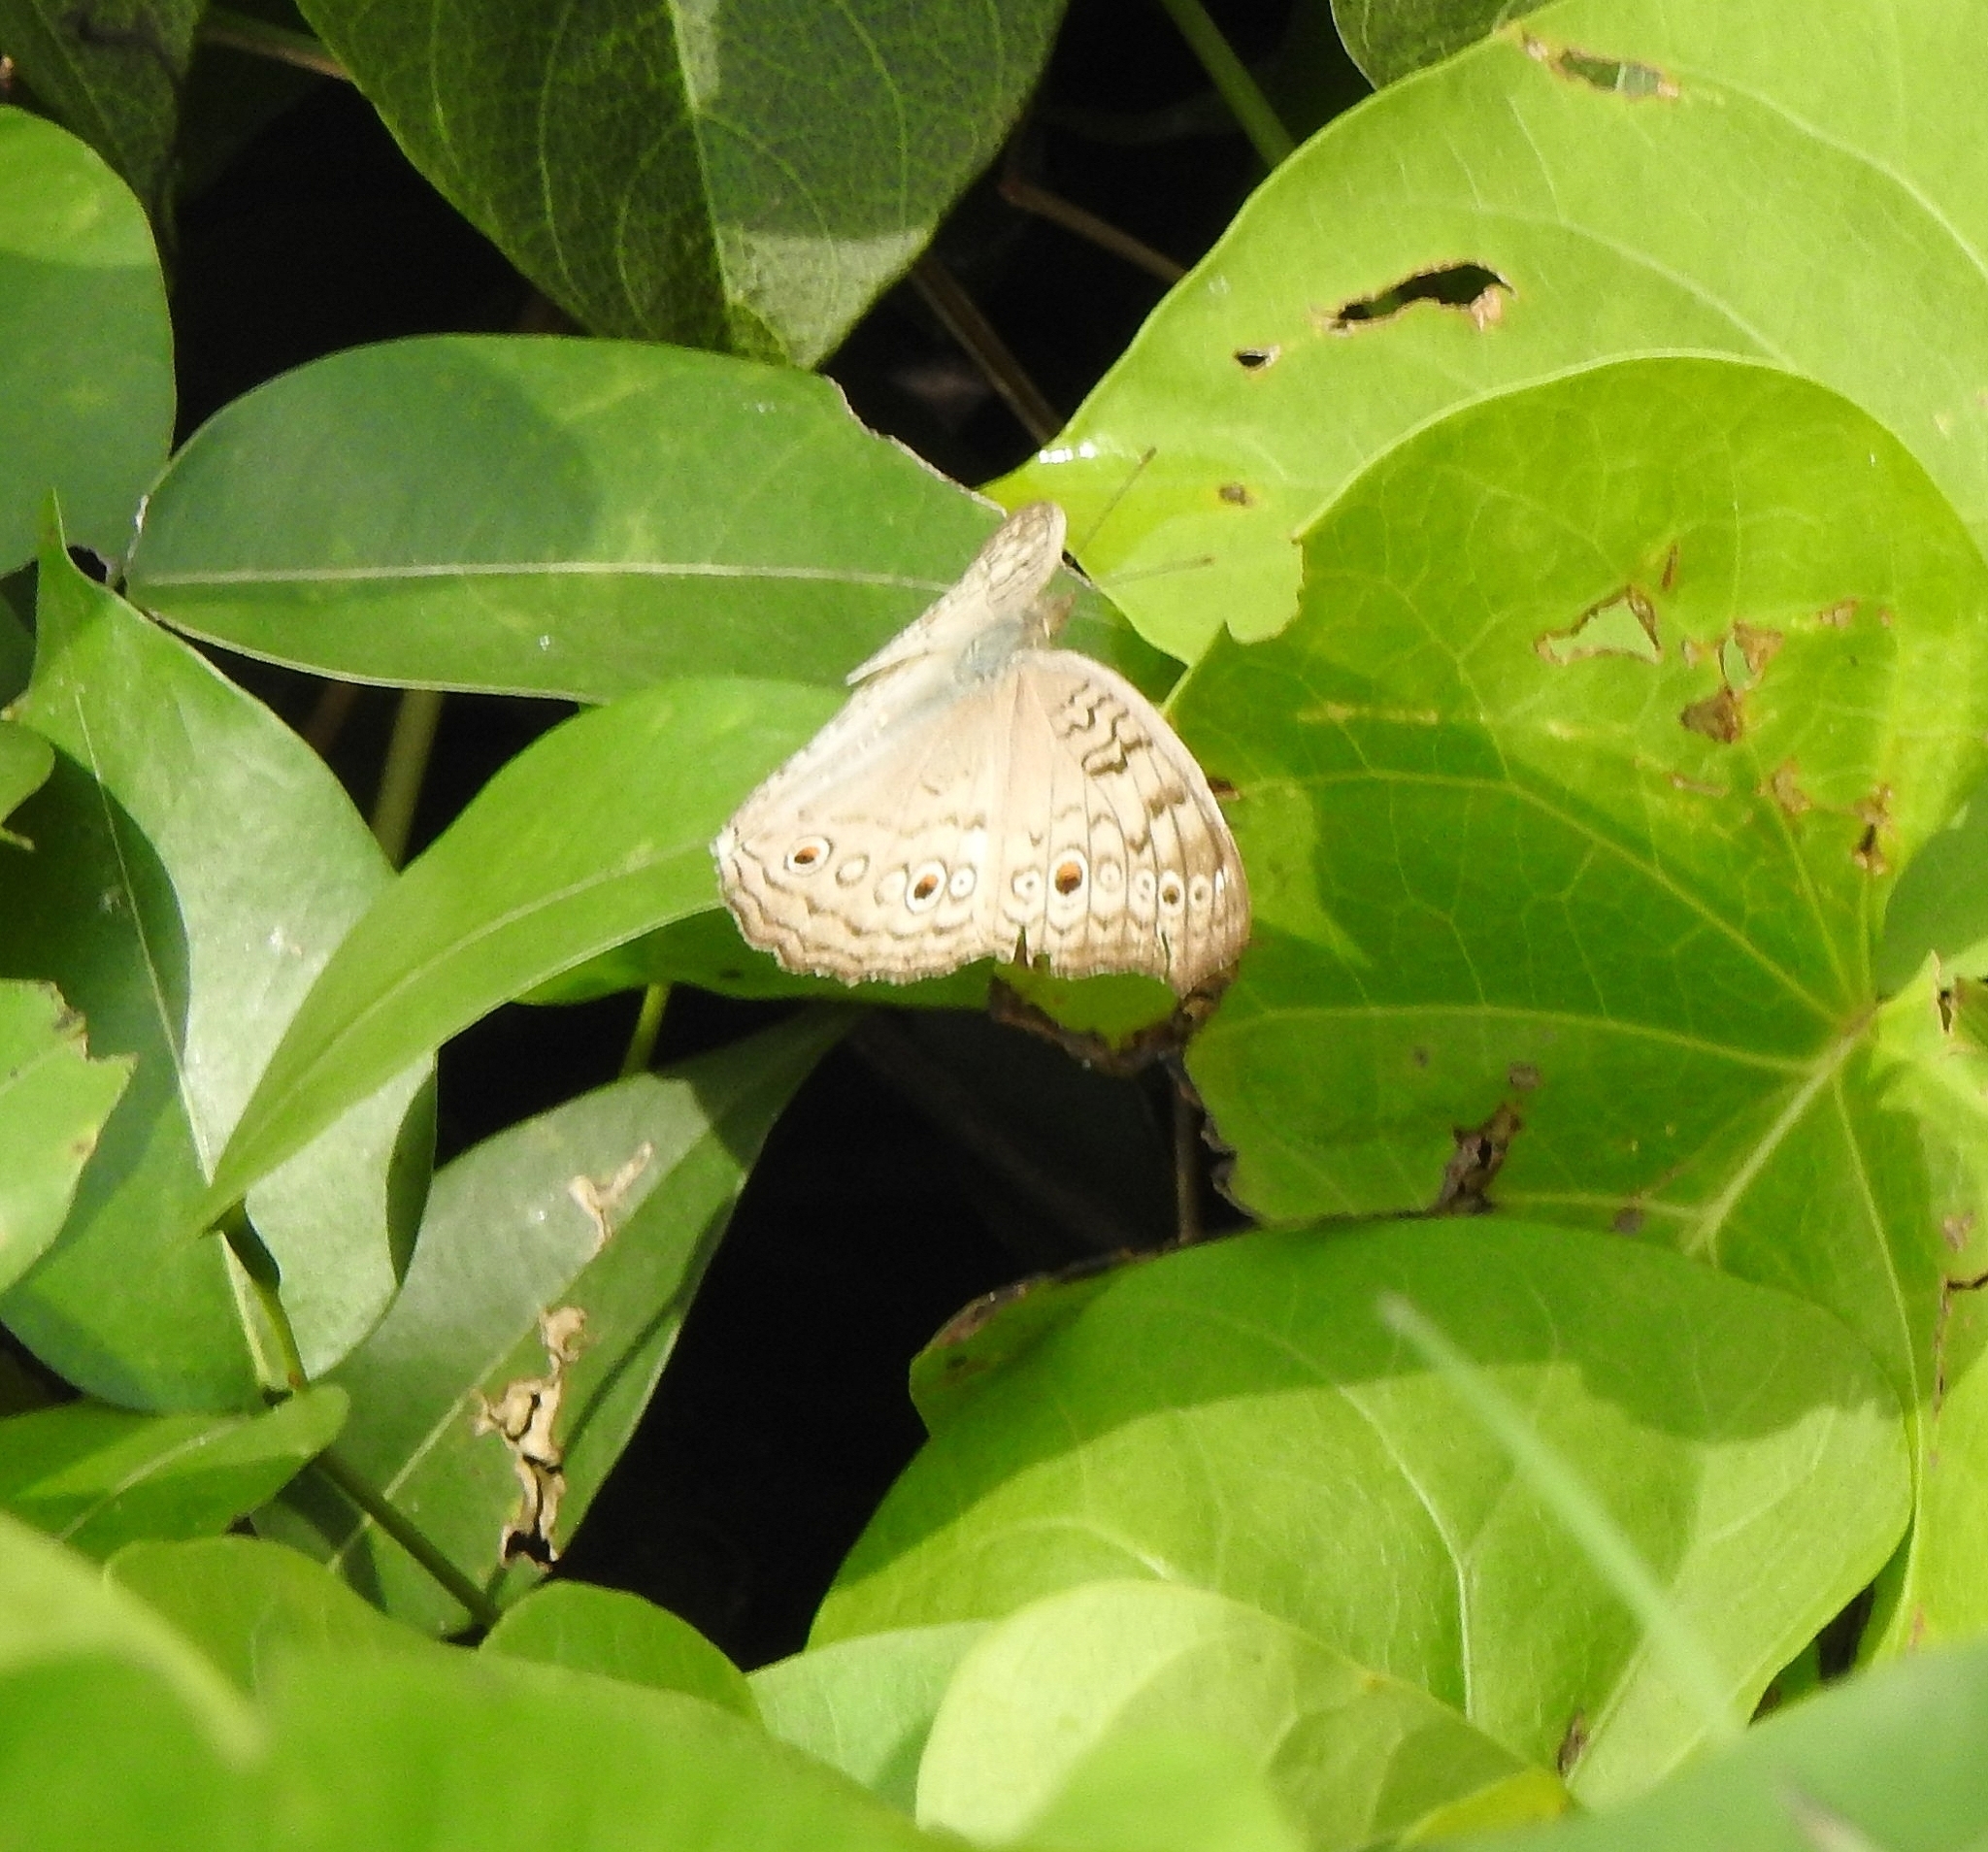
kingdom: Animalia
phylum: Arthropoda
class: Insecta
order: Lepidoptera
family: Nymphalidae
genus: Junonia
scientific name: Junonia atlites
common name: Grey pansy
